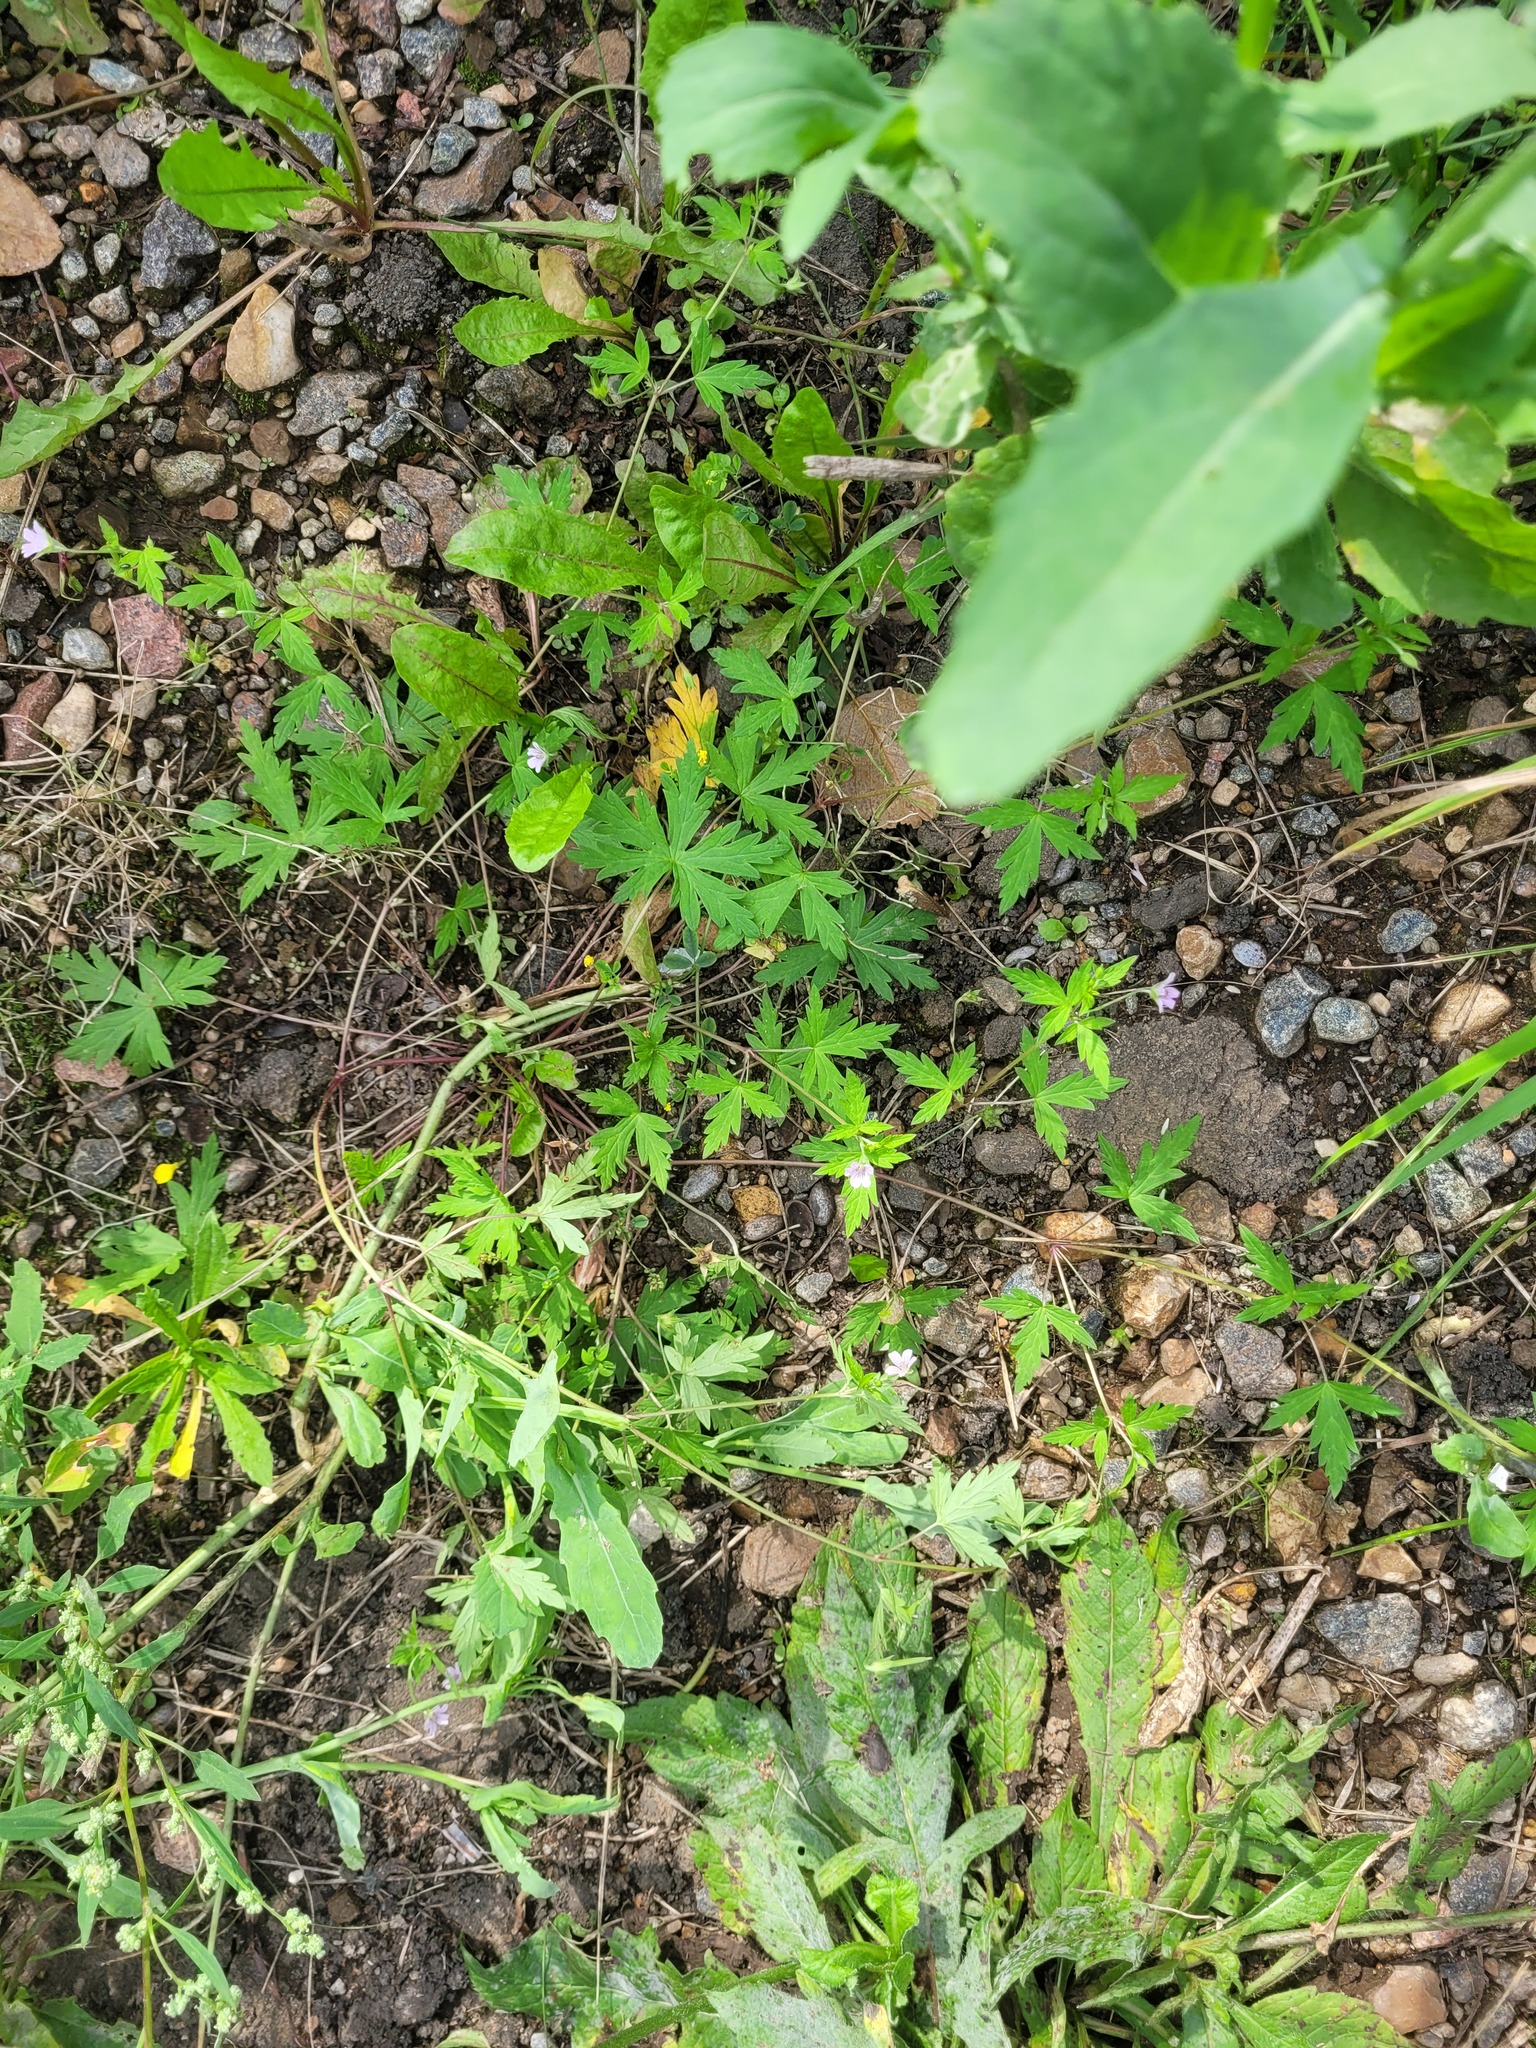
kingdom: Plantae
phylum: Tracheophyta
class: Magnoliopsida
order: Geraniales
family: Geraniaceae
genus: Geranium
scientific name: Geranium sibiricum
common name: Siberian crane's-bill
